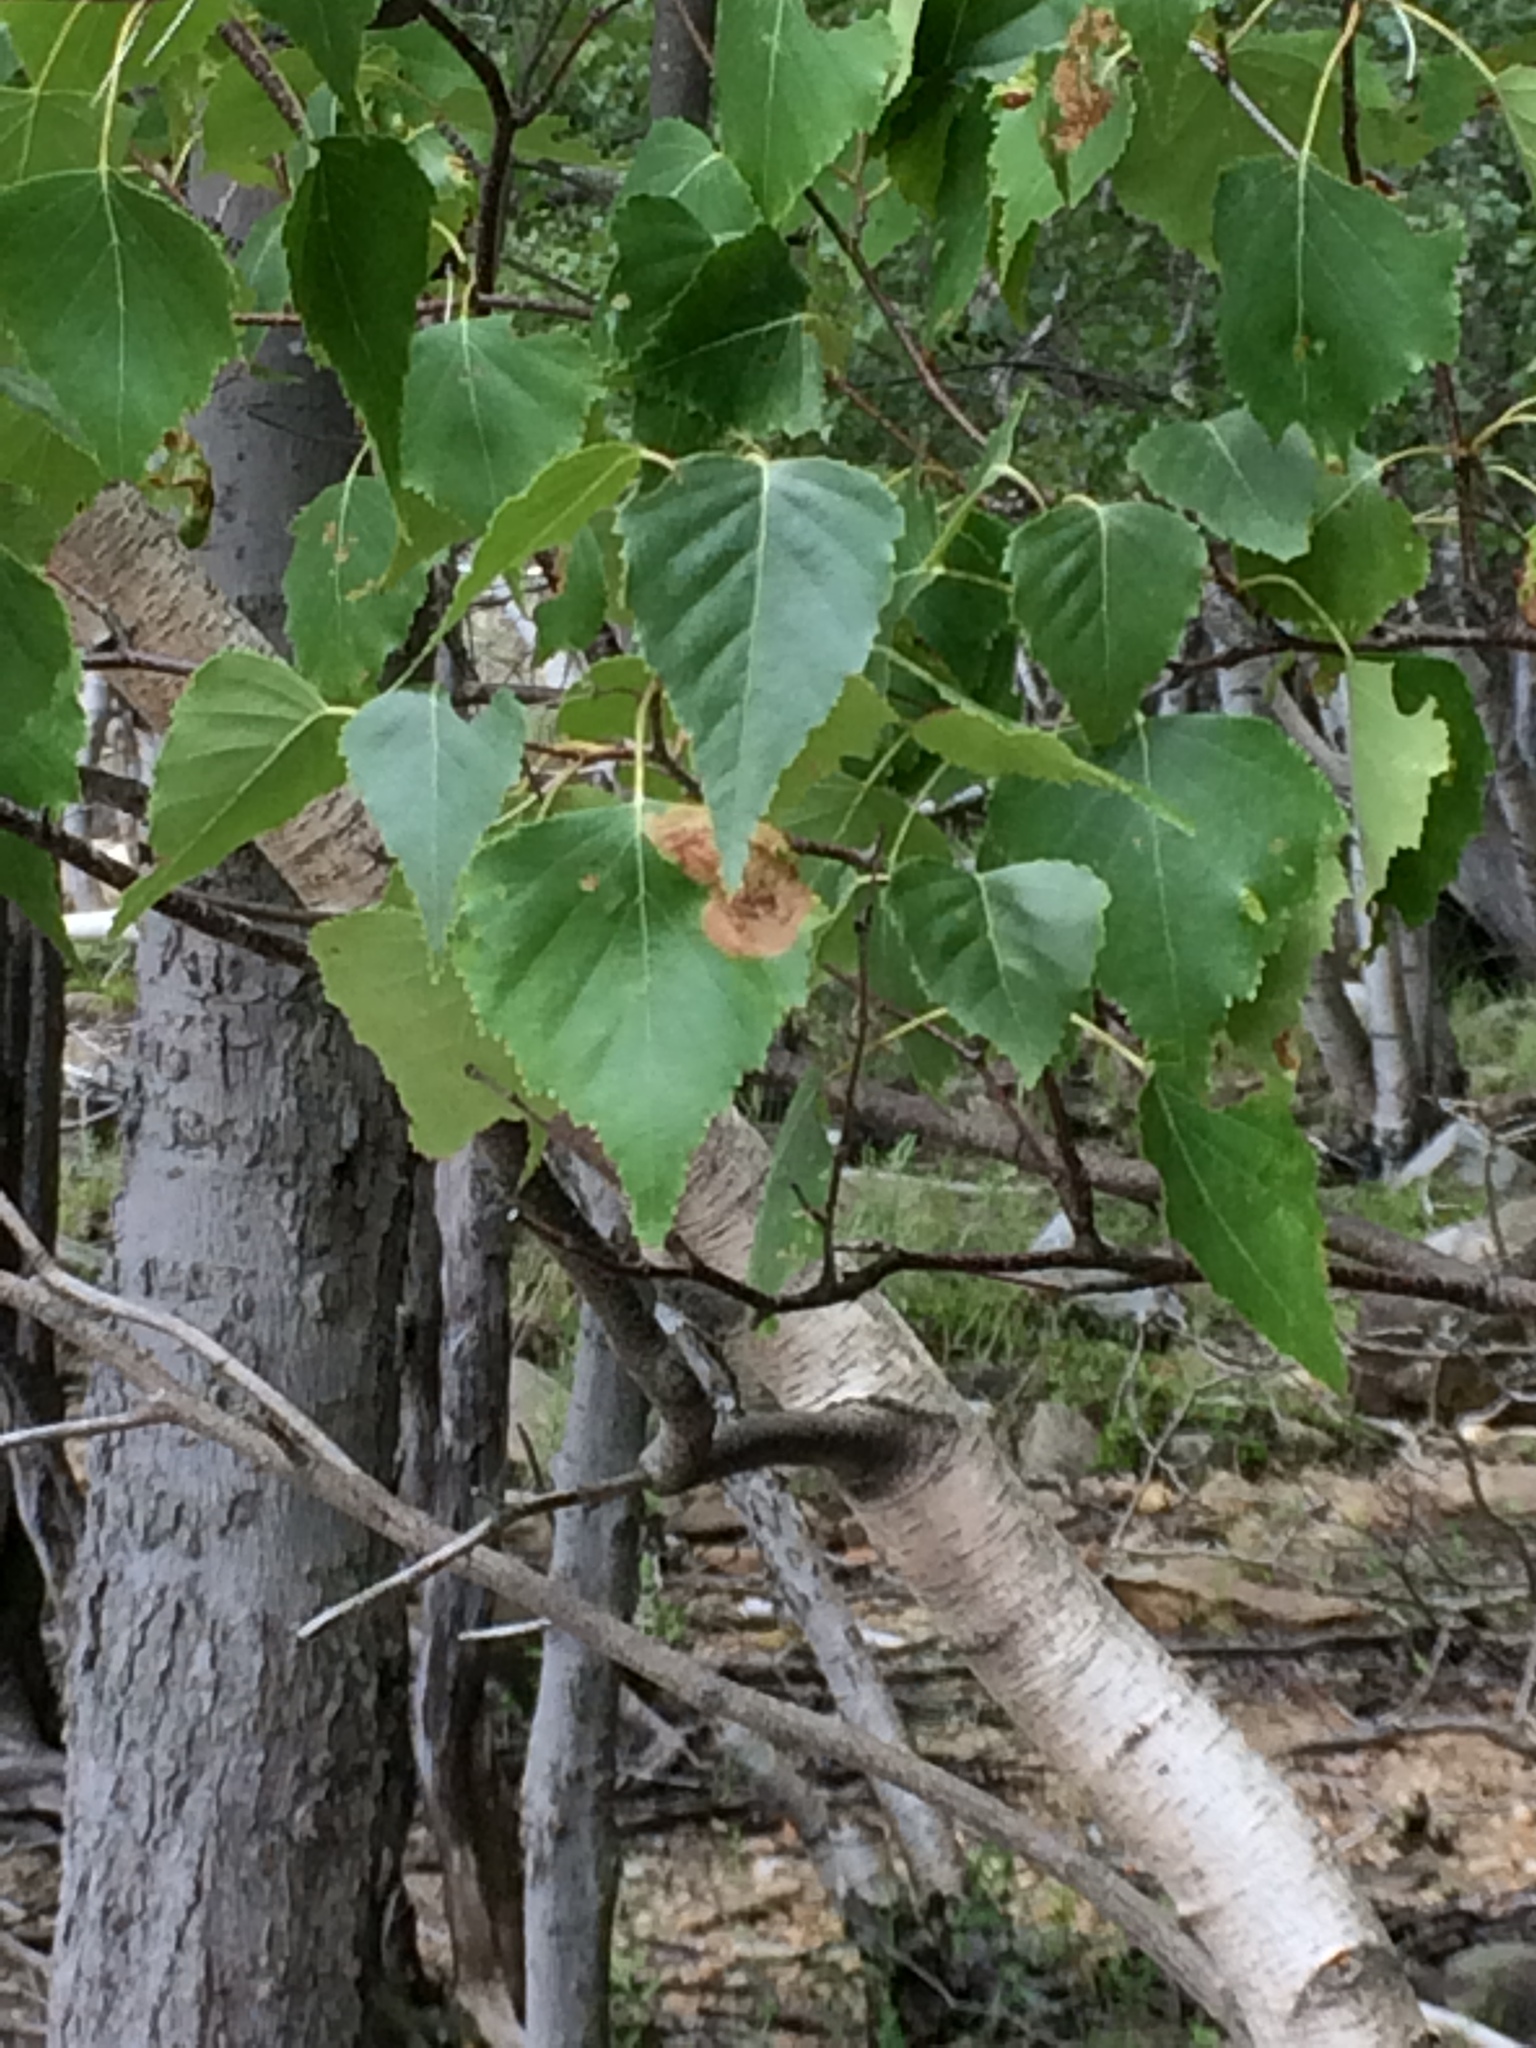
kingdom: Plantae
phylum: Tracheophyta
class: Magnoliopsida
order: Fagales
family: Betulaceae
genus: Betula
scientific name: Betula populifolia
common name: Fire birch
